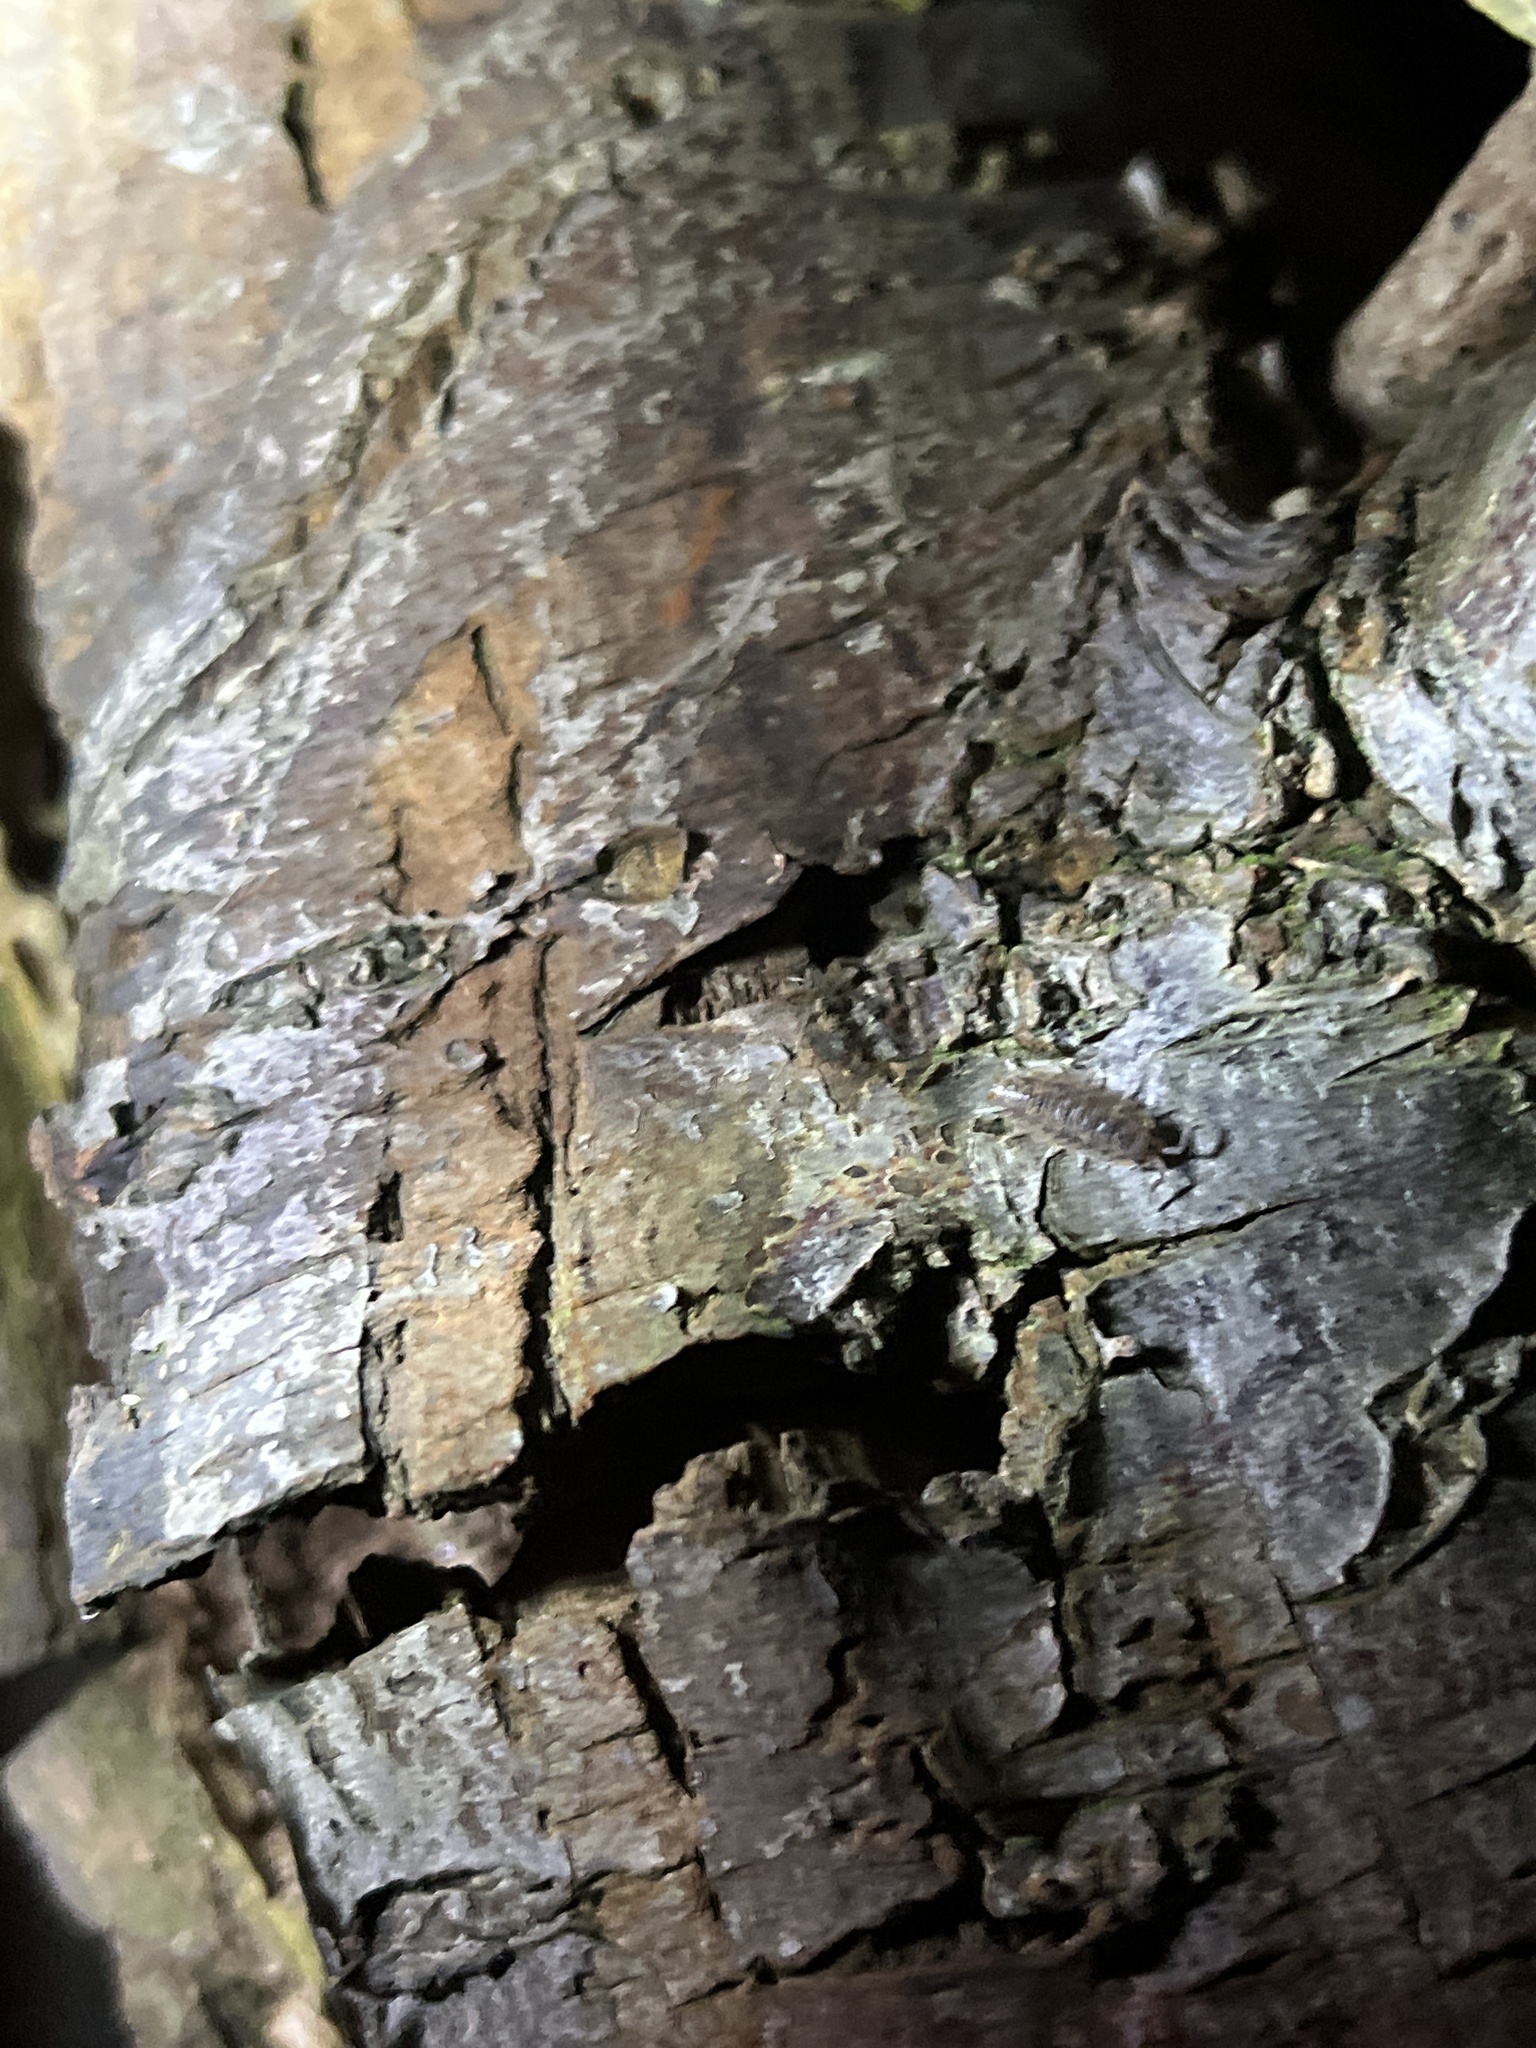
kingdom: Animalia
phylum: Arthropoda
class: Malacostraca
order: Isopoda
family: Porcellionidae
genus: Porcellio
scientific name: Porcellio scaber
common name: Common rough woodlouse
